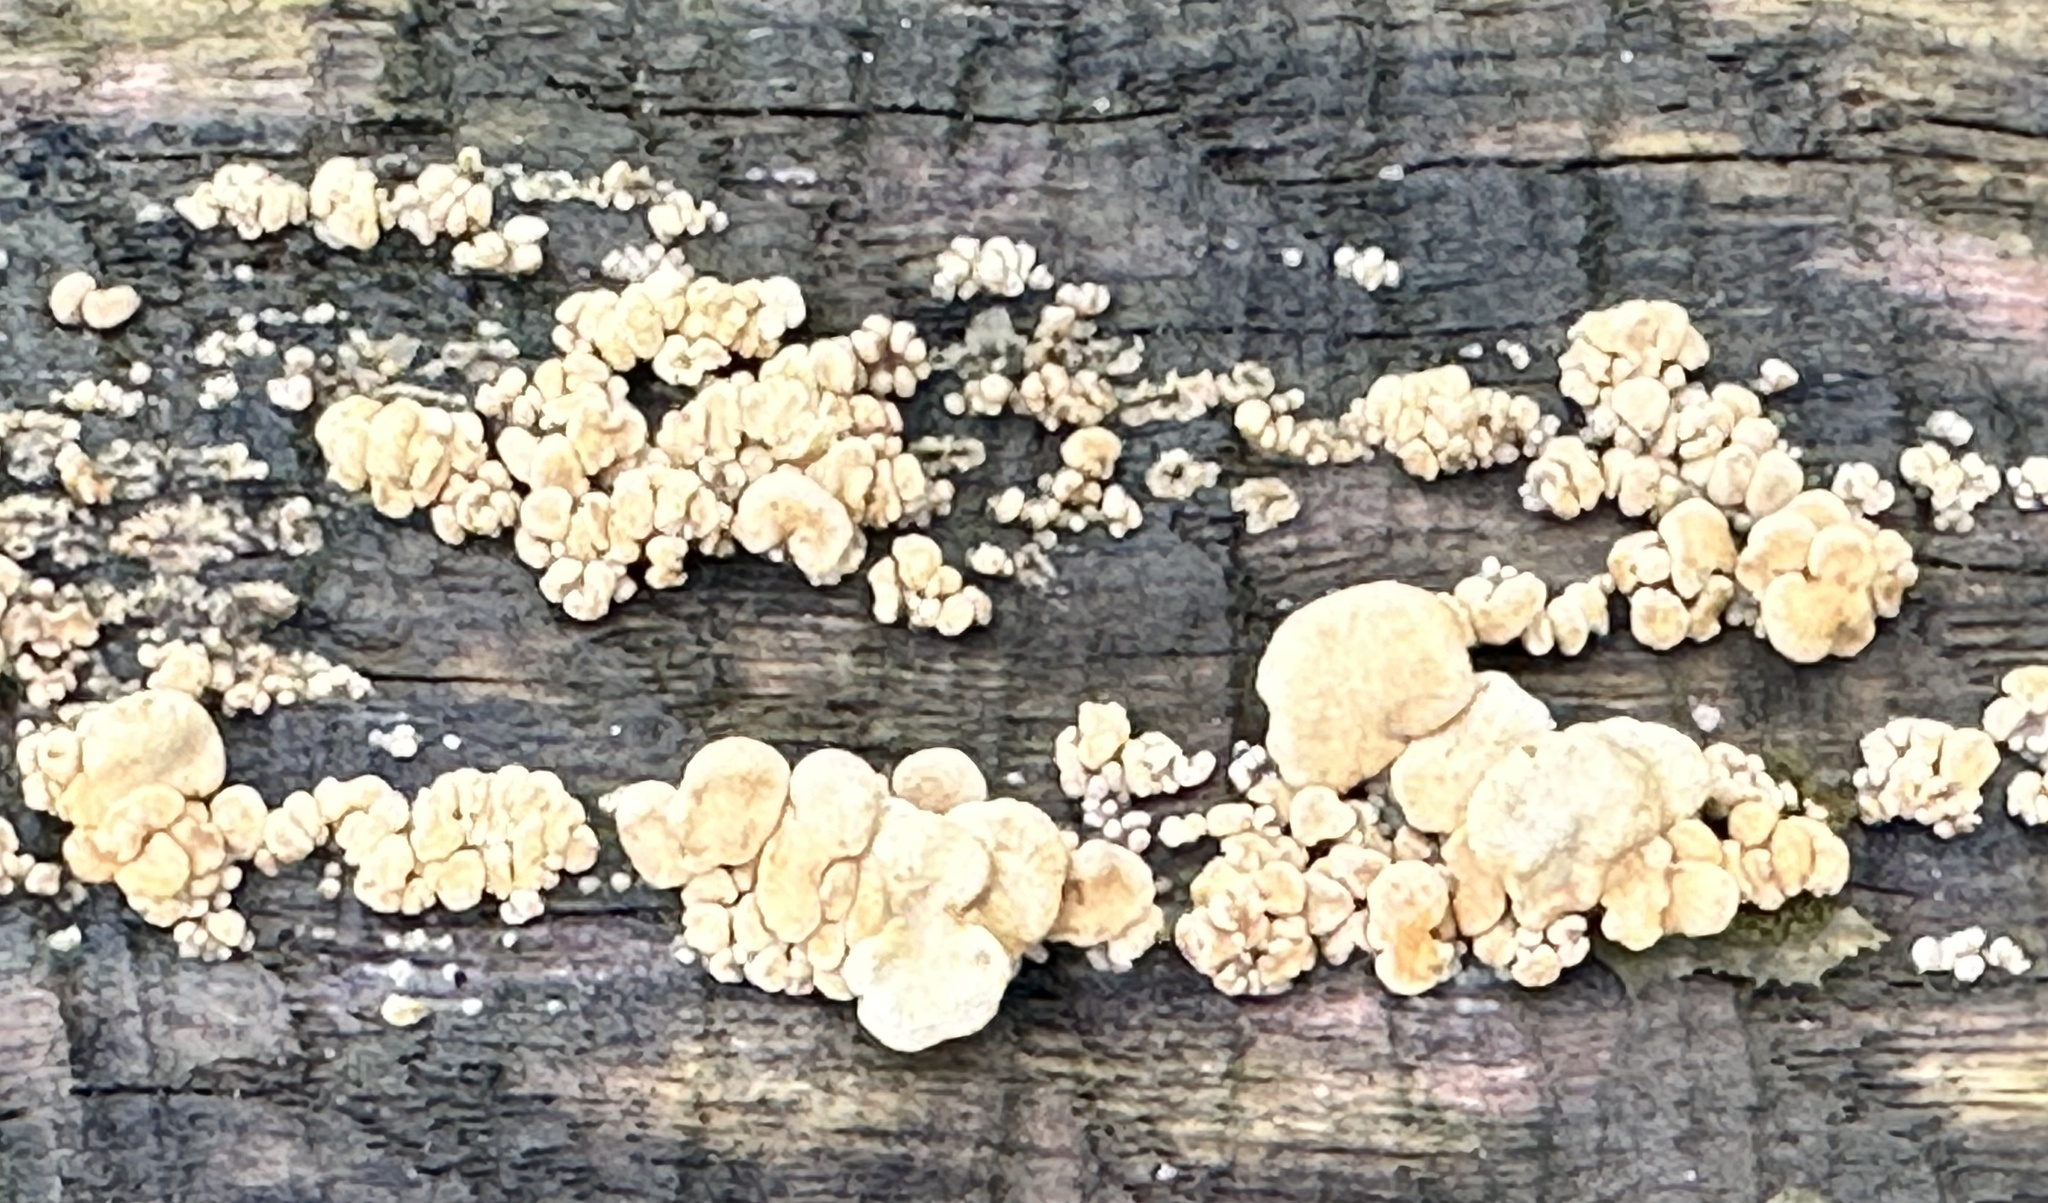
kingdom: Fungi
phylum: Basidiomycota
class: Agaricomycetes
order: Agaricales
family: Mycenaceae
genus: Panellus
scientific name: Panellus stipticus
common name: Bitter oysterling
